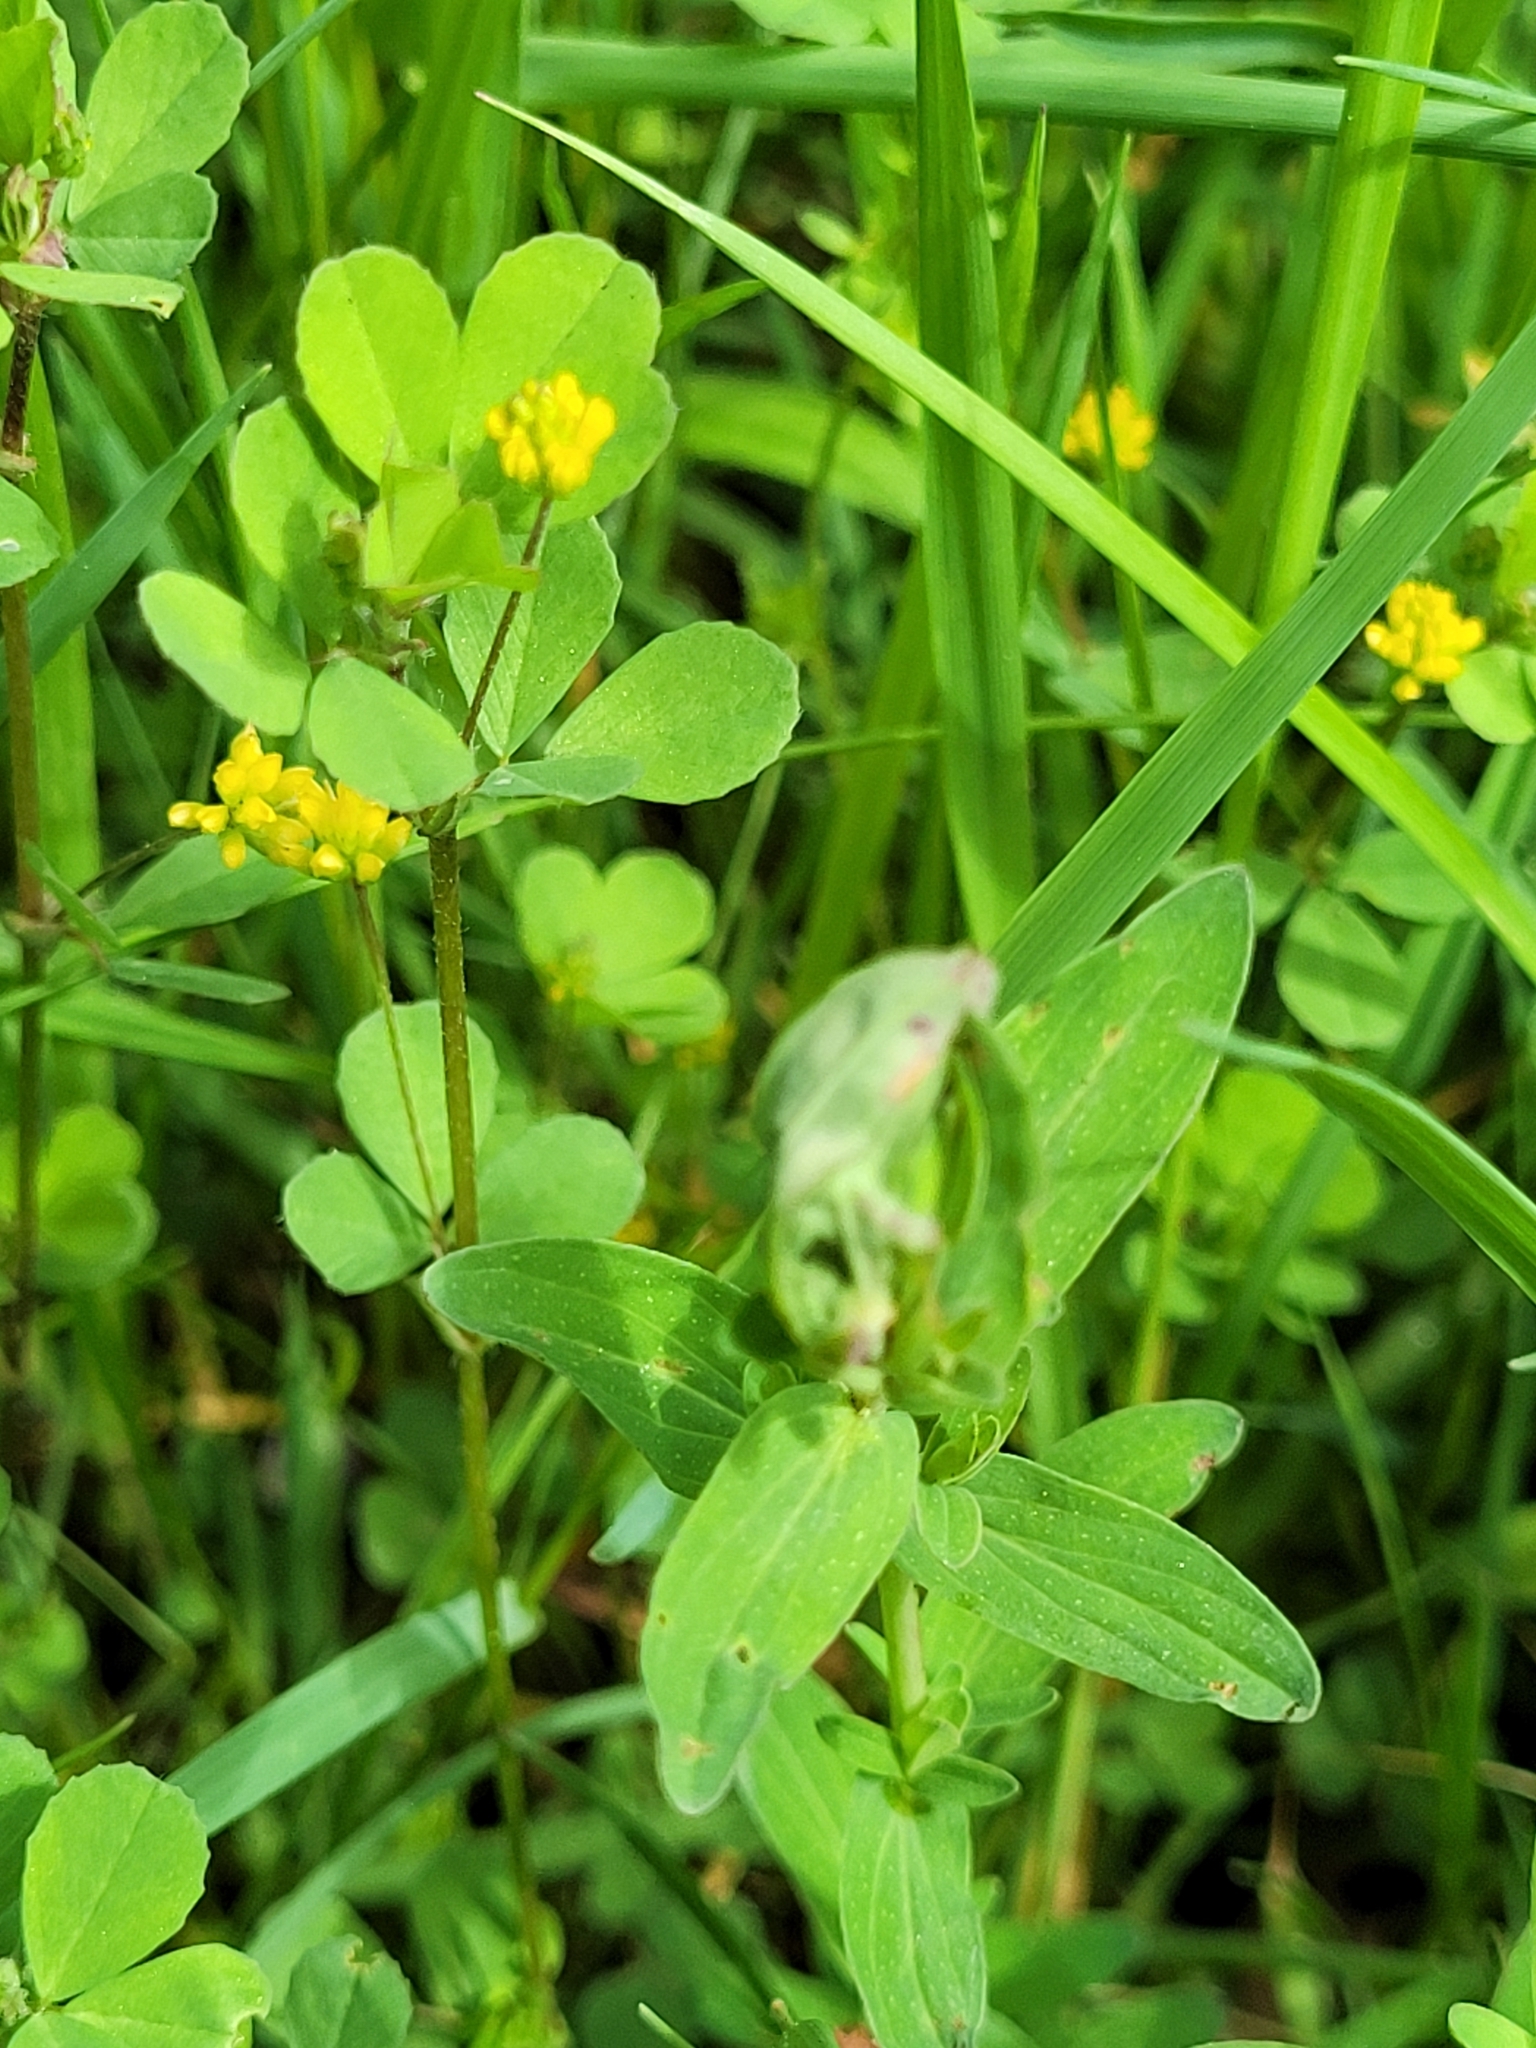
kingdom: Plantae
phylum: Tracheophyta
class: Magnoliopsida
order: Fabales
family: Fabaceae
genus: Trifolium
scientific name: Trifolium dubium
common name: Suckling clover
